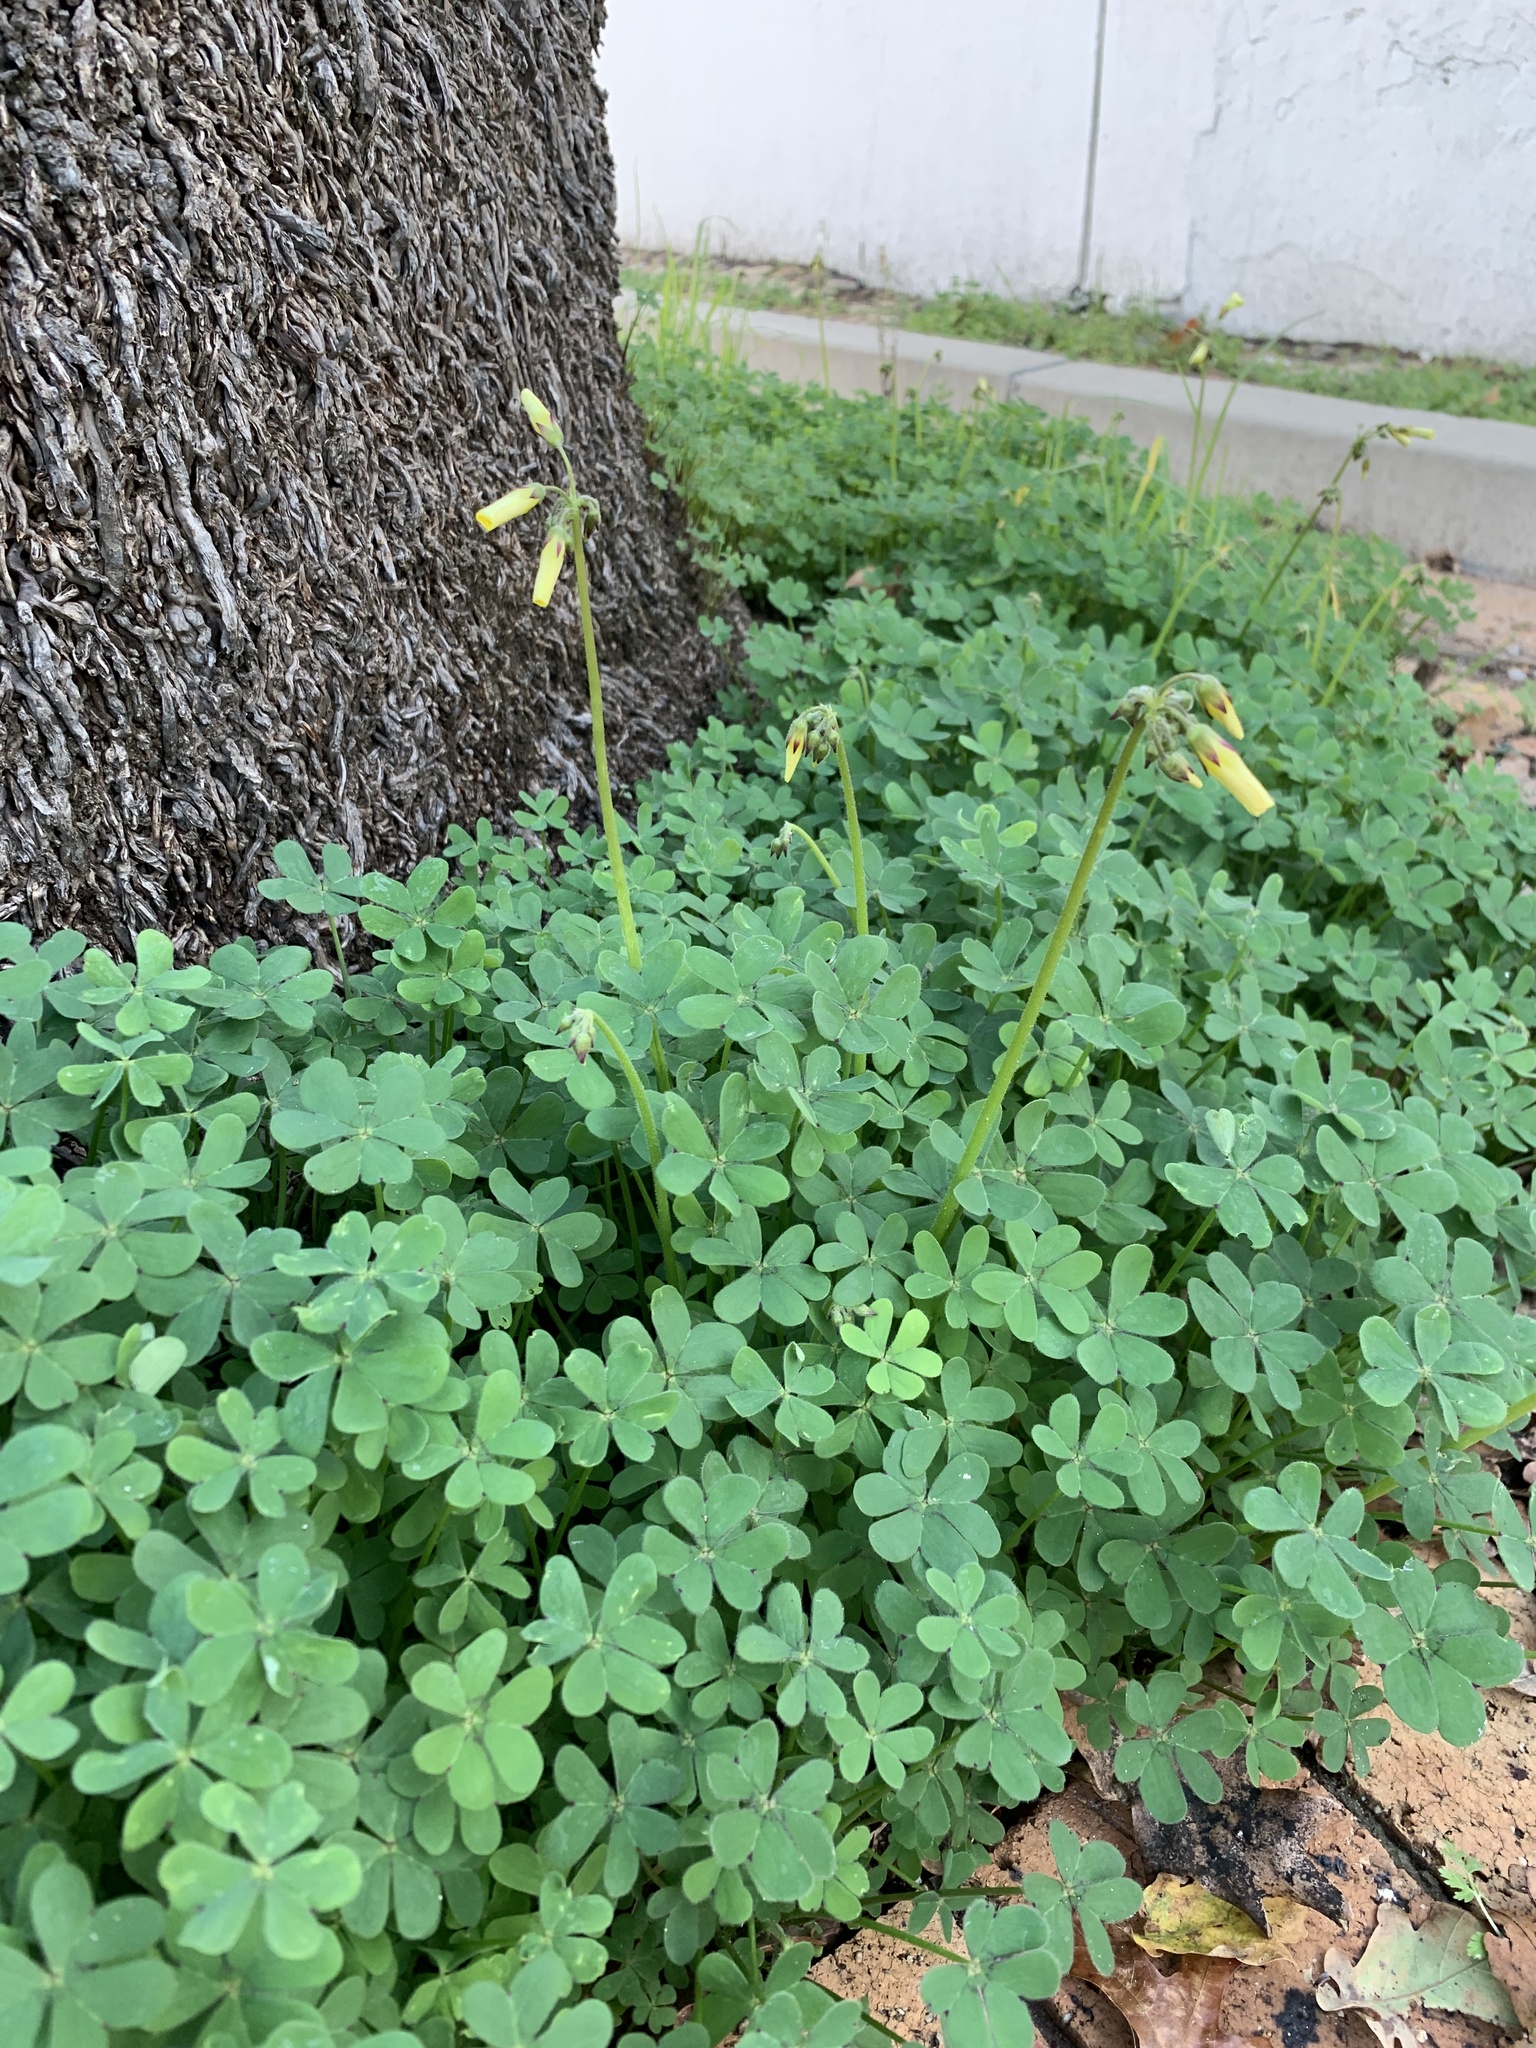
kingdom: Plantae
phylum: Tracheophyta
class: Magnoliopsida
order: Oxalidales
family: Oxalidaceae
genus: Oxalis
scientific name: Oxalis pes-caprae
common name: Bermuda-buttercup
